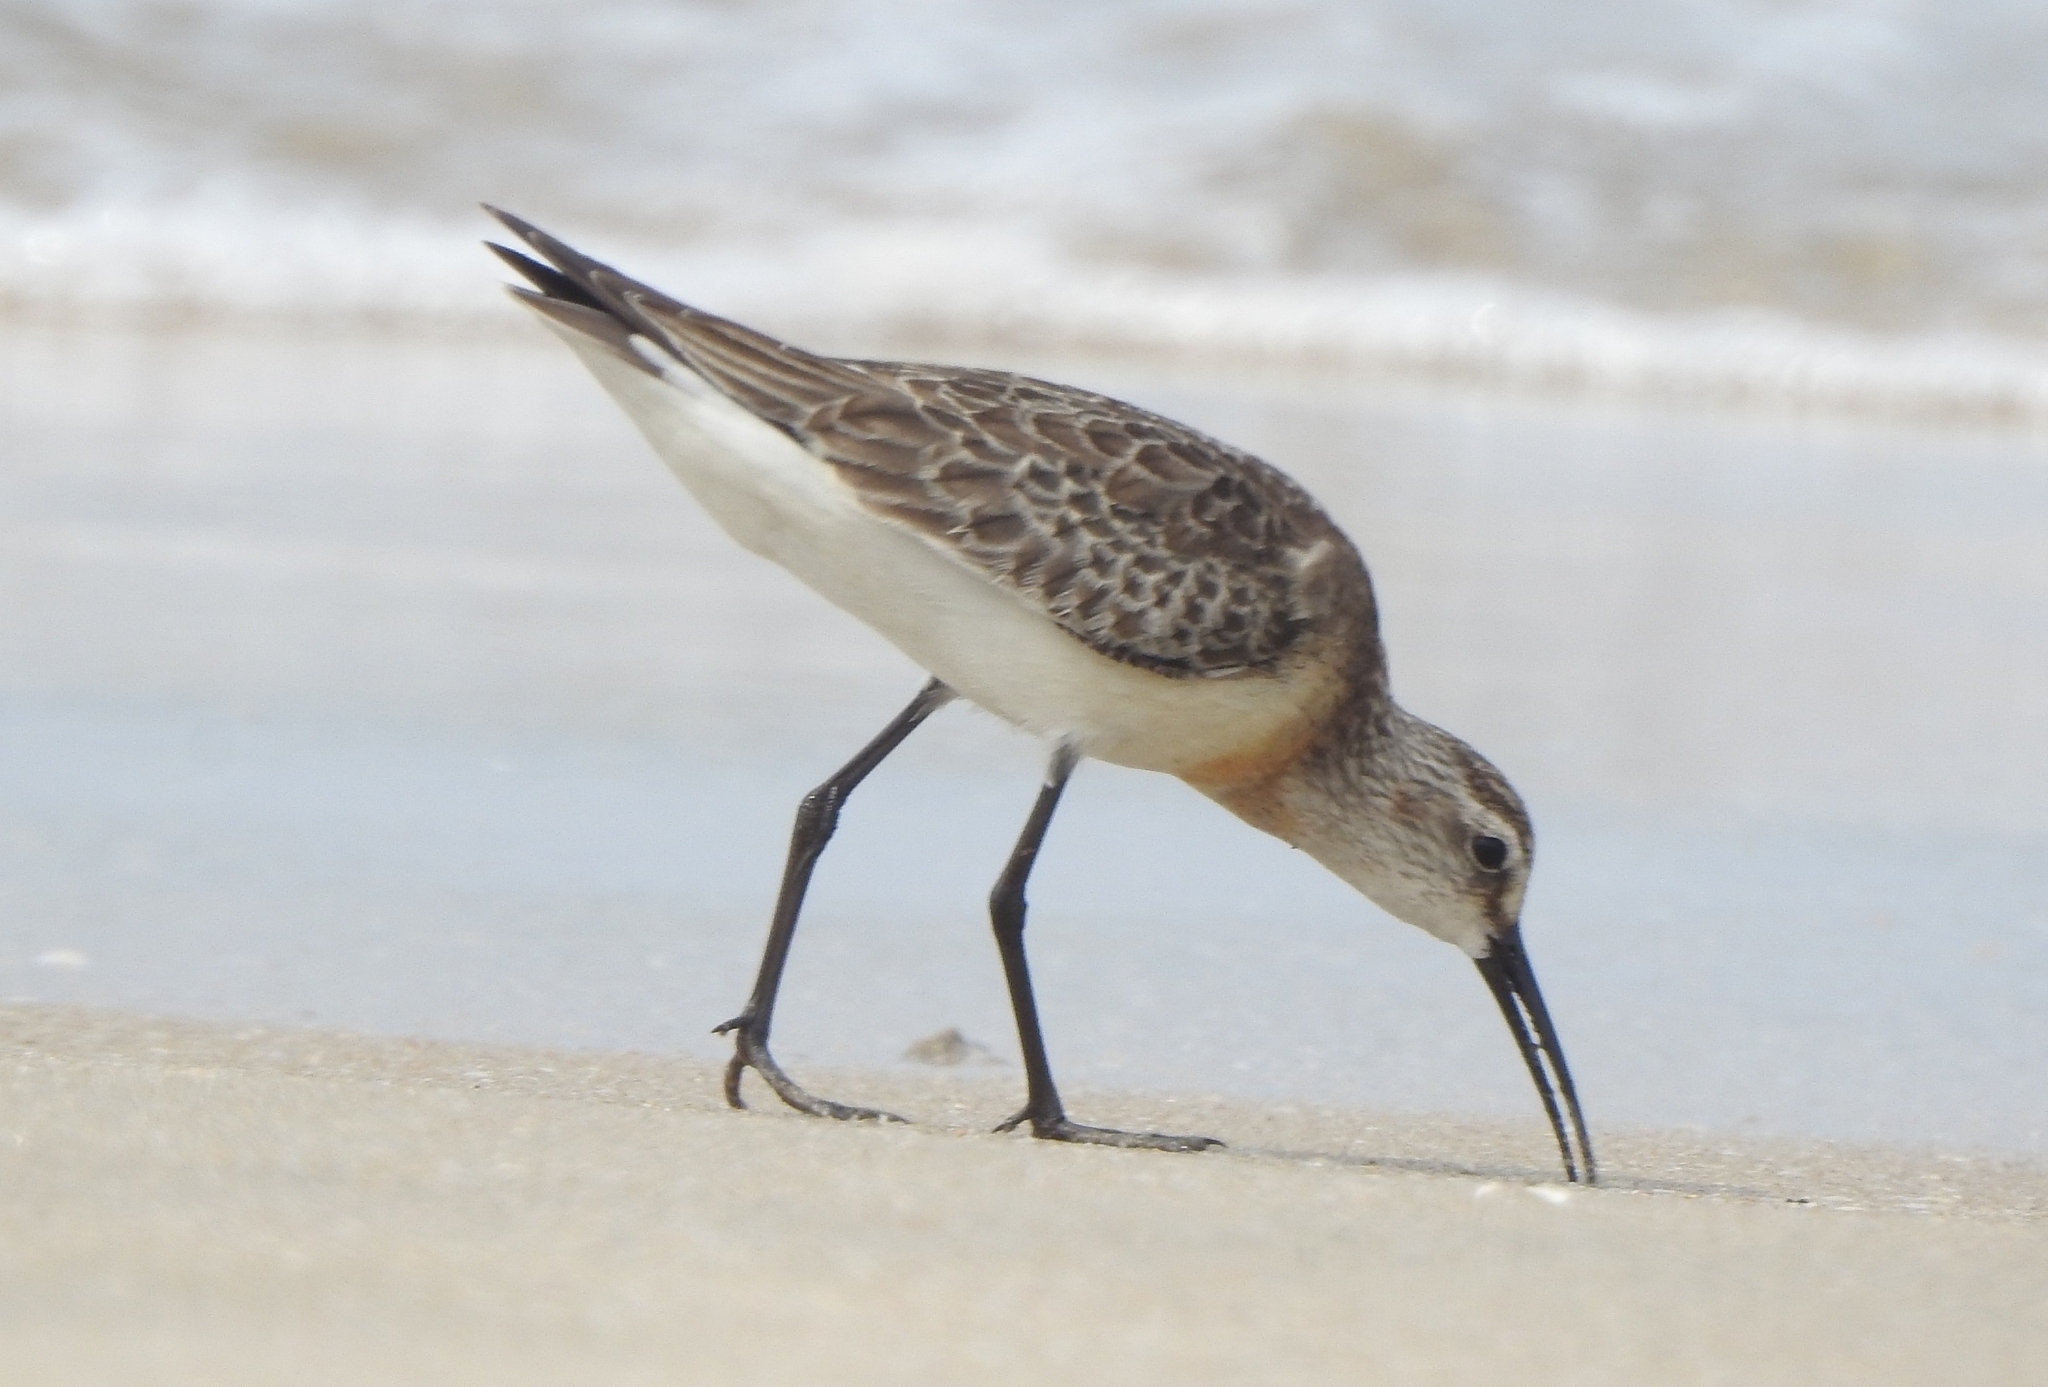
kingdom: Animalia
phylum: Chordata
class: Aves
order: Charadriiformes
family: Scolopacidae
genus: Calidris
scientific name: Calidris ferruginea
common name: Curlew sandpiper
